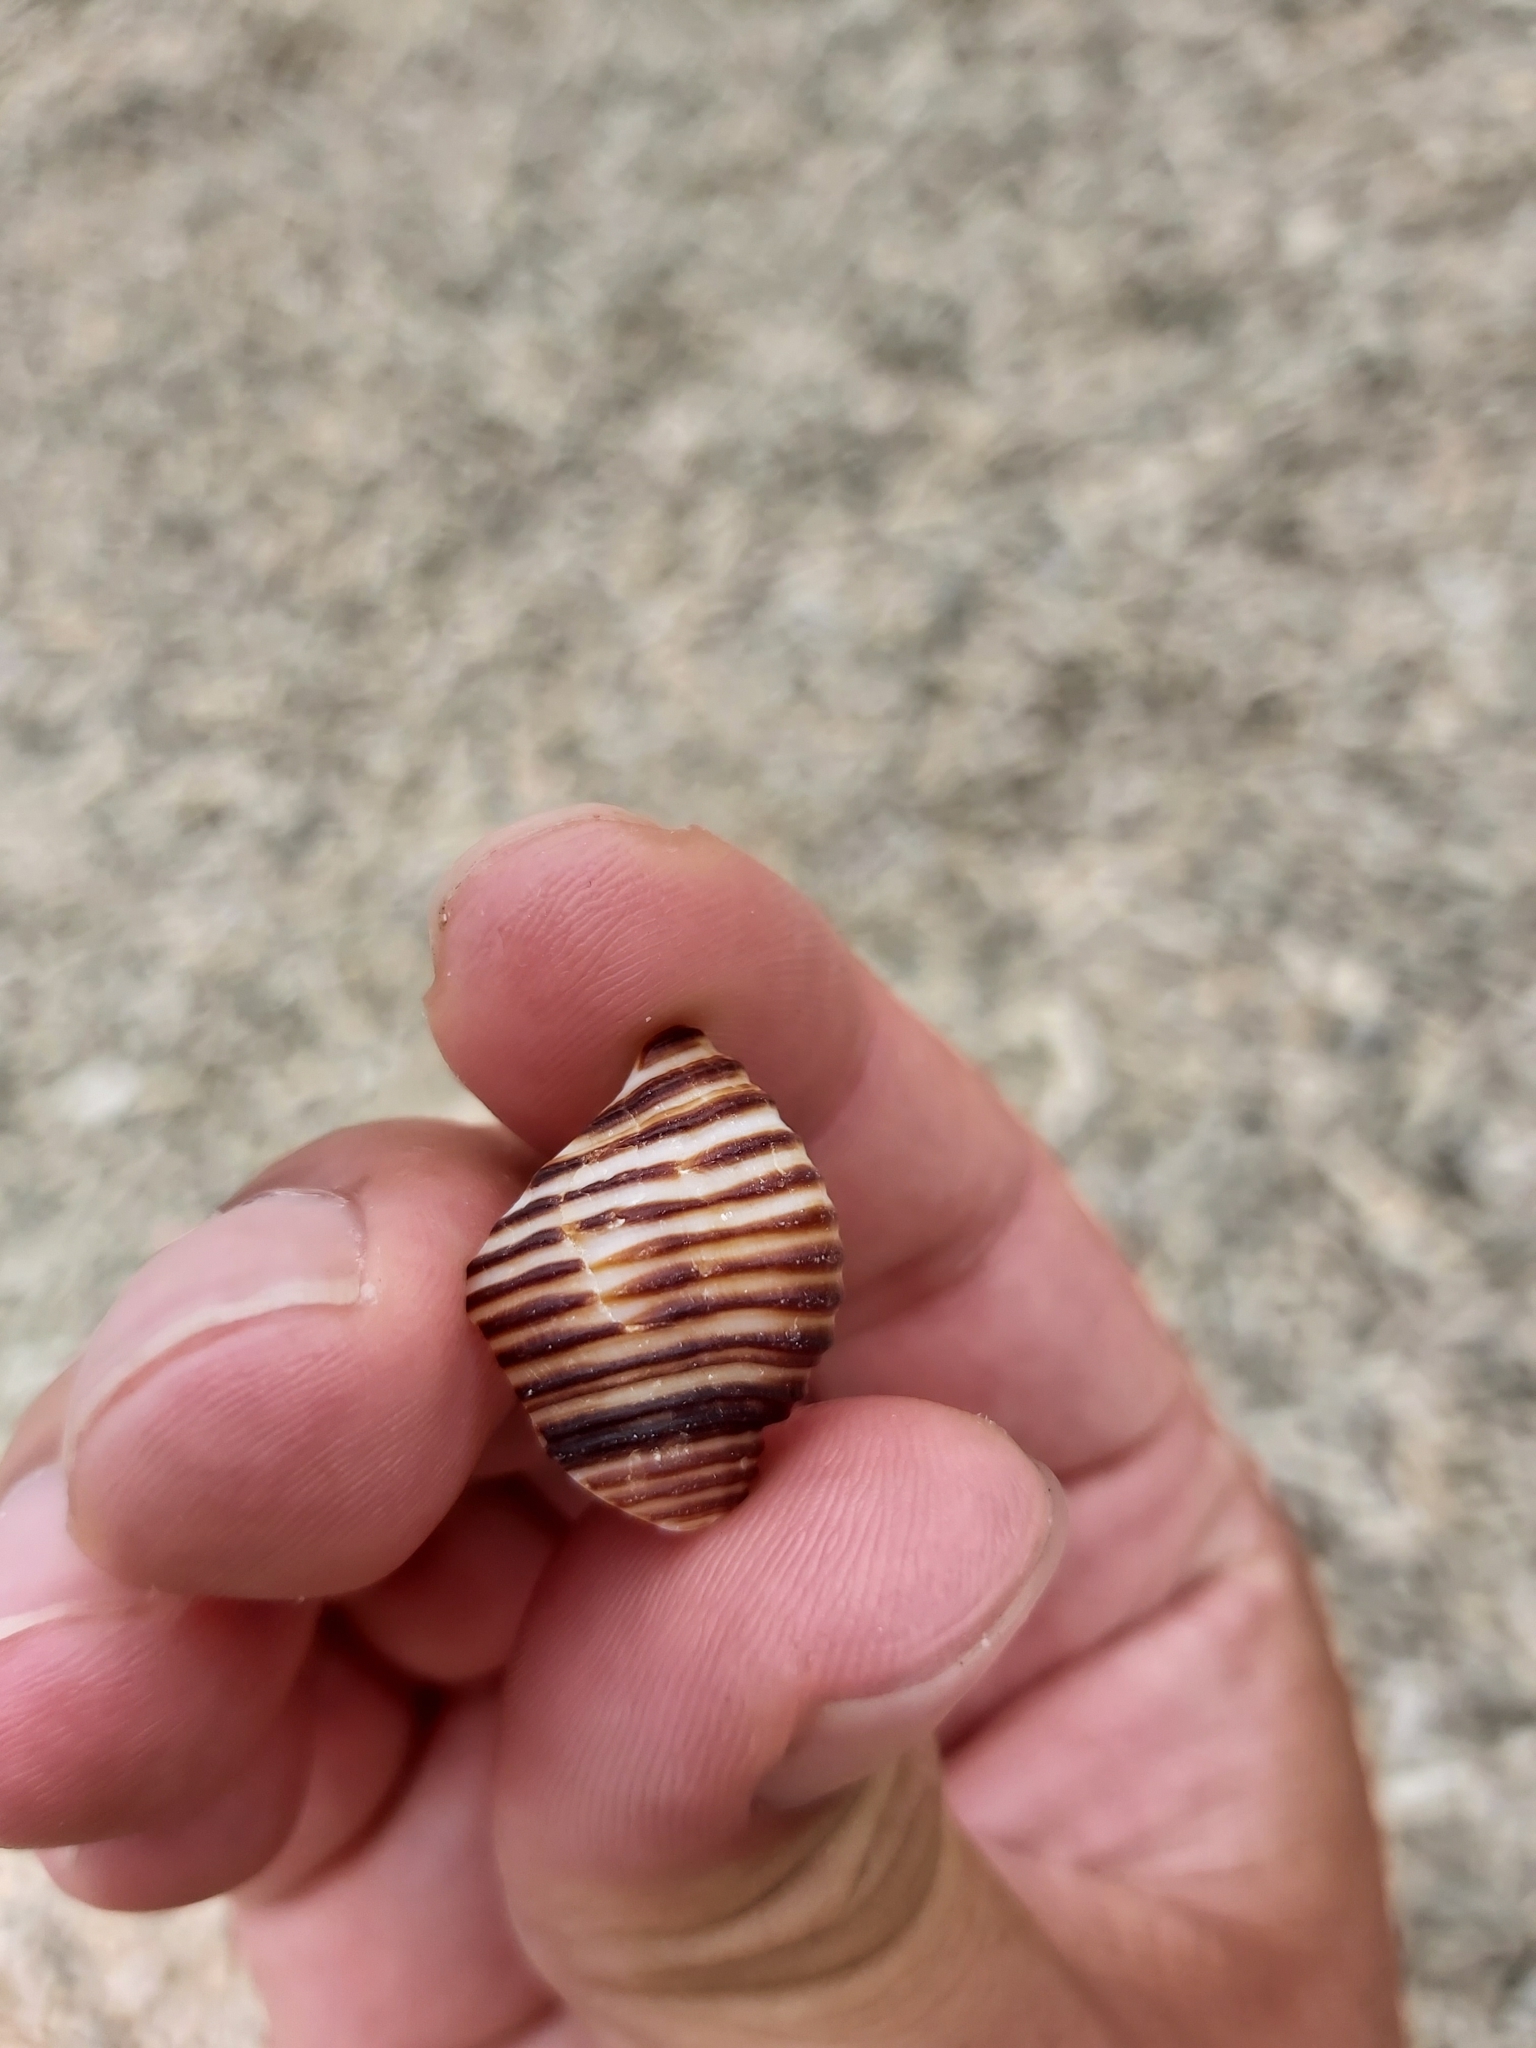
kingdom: Animalia
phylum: Mollusca
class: Gastropoda
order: Neogastropoda
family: Pisaniidae
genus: Pollia
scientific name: Pollia undosa
